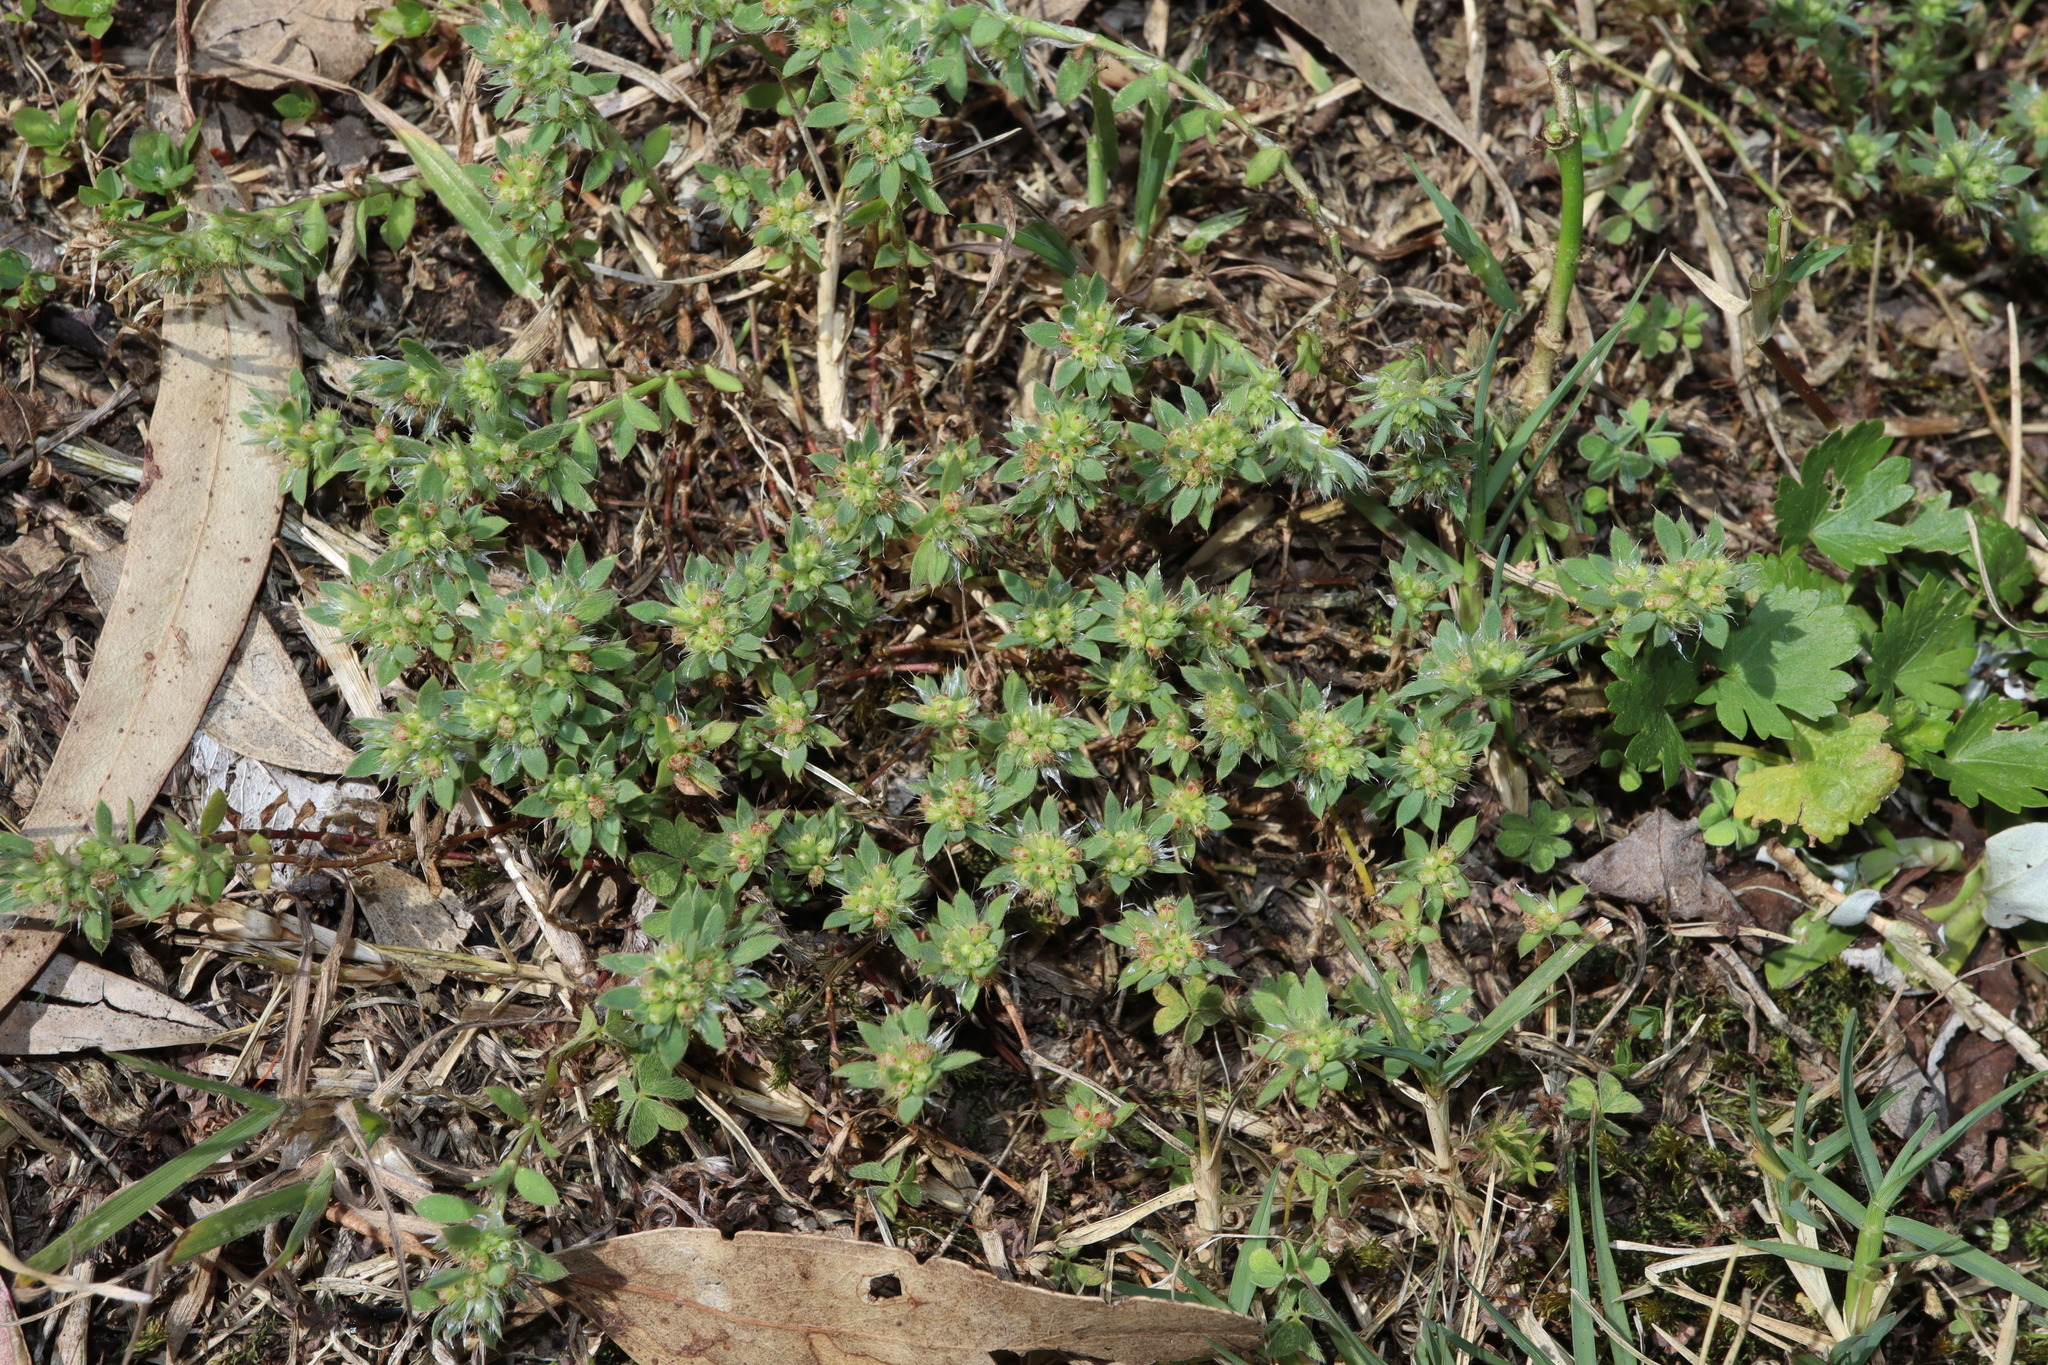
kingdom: Plantae
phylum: Tracheophyta
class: Magnoliopsida
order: Caryophyllales
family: Caryophyllaceae
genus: Paronychia
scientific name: Paronychia brasiliana
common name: Brazilian whitlow
